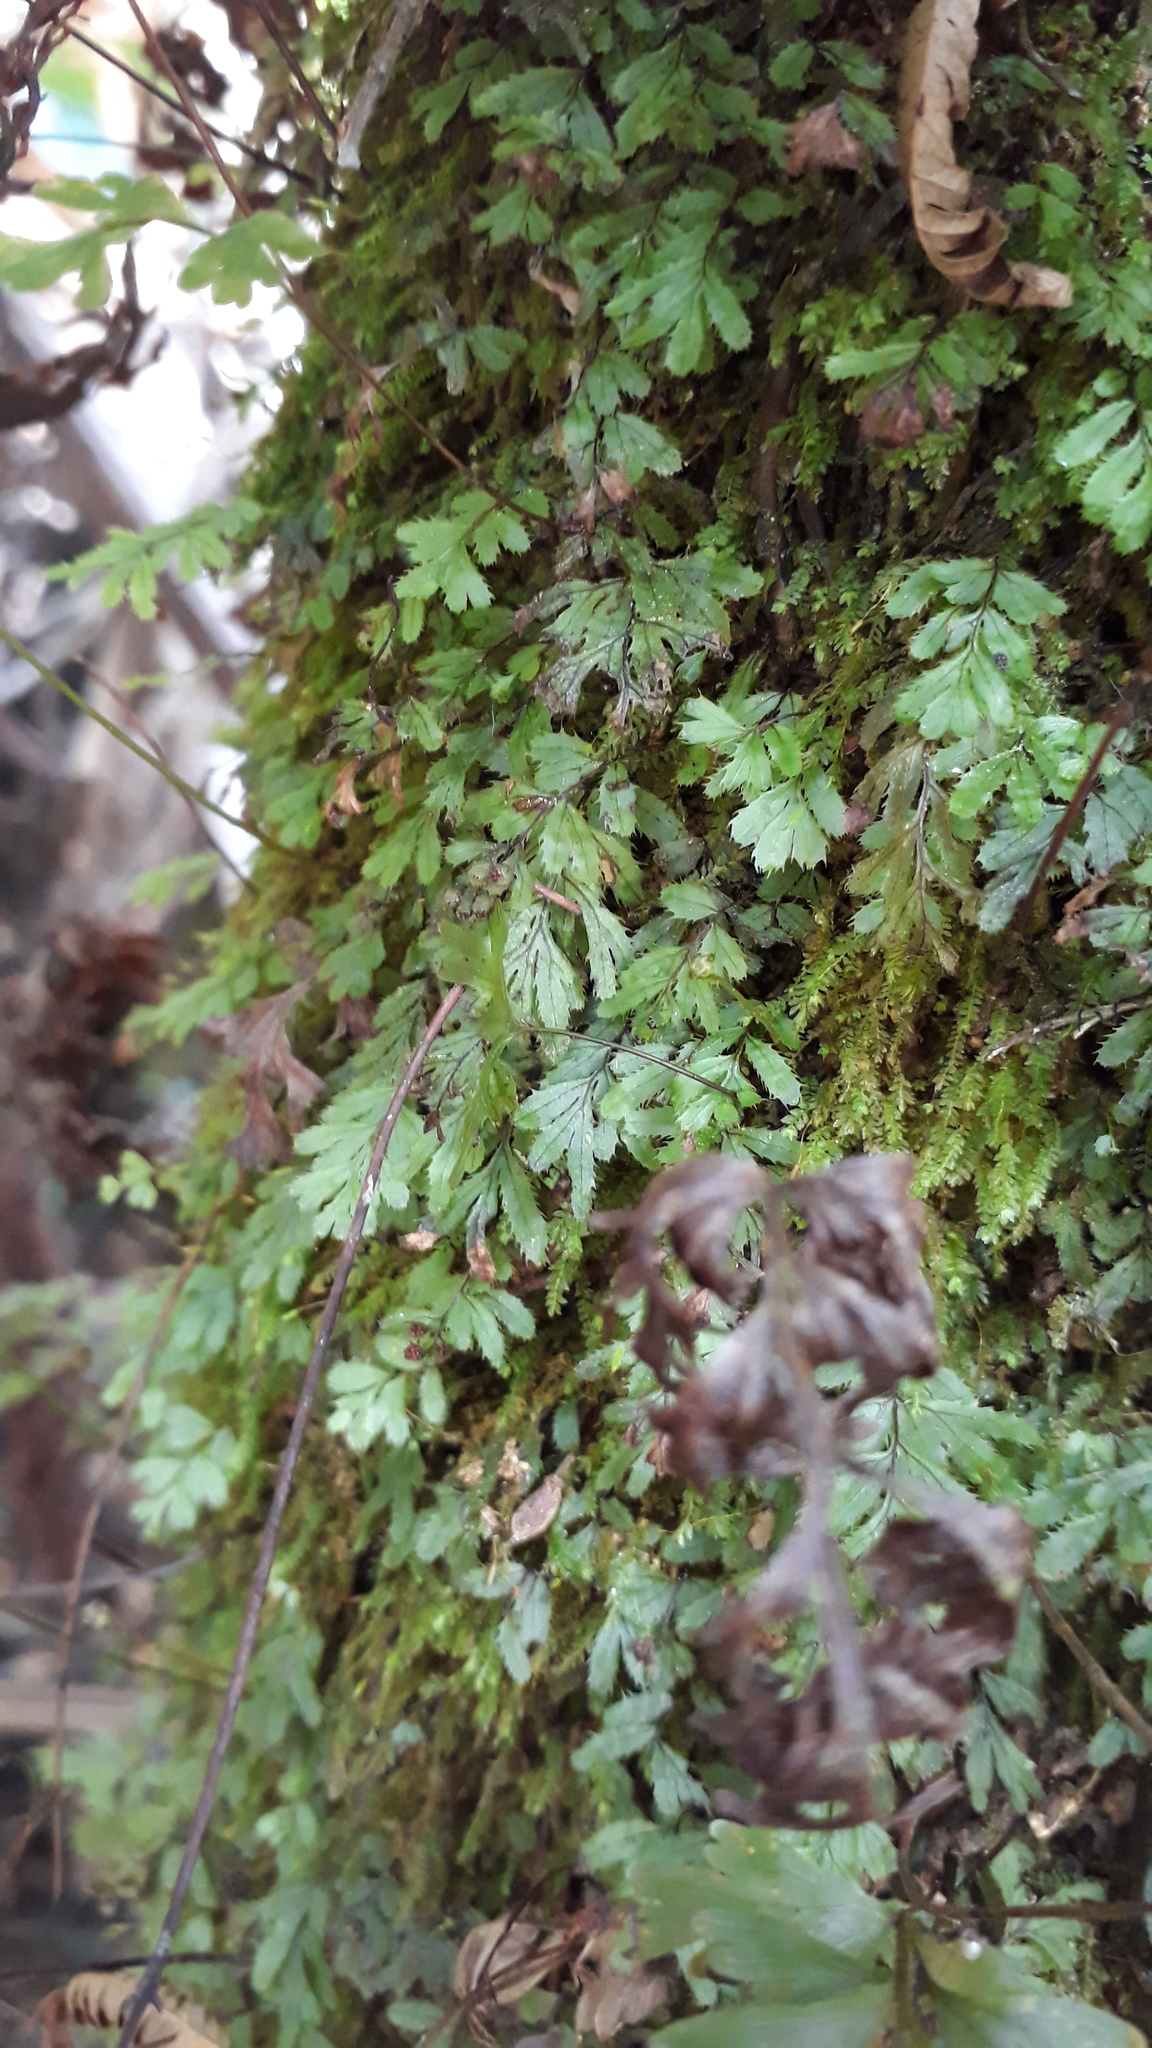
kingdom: Plantae
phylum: Tracheophyta
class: Polypodiopsida
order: Hymenophyllales
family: Hymenophyllaceae
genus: Hymenophyllum
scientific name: Hymenophyllum revolutum
